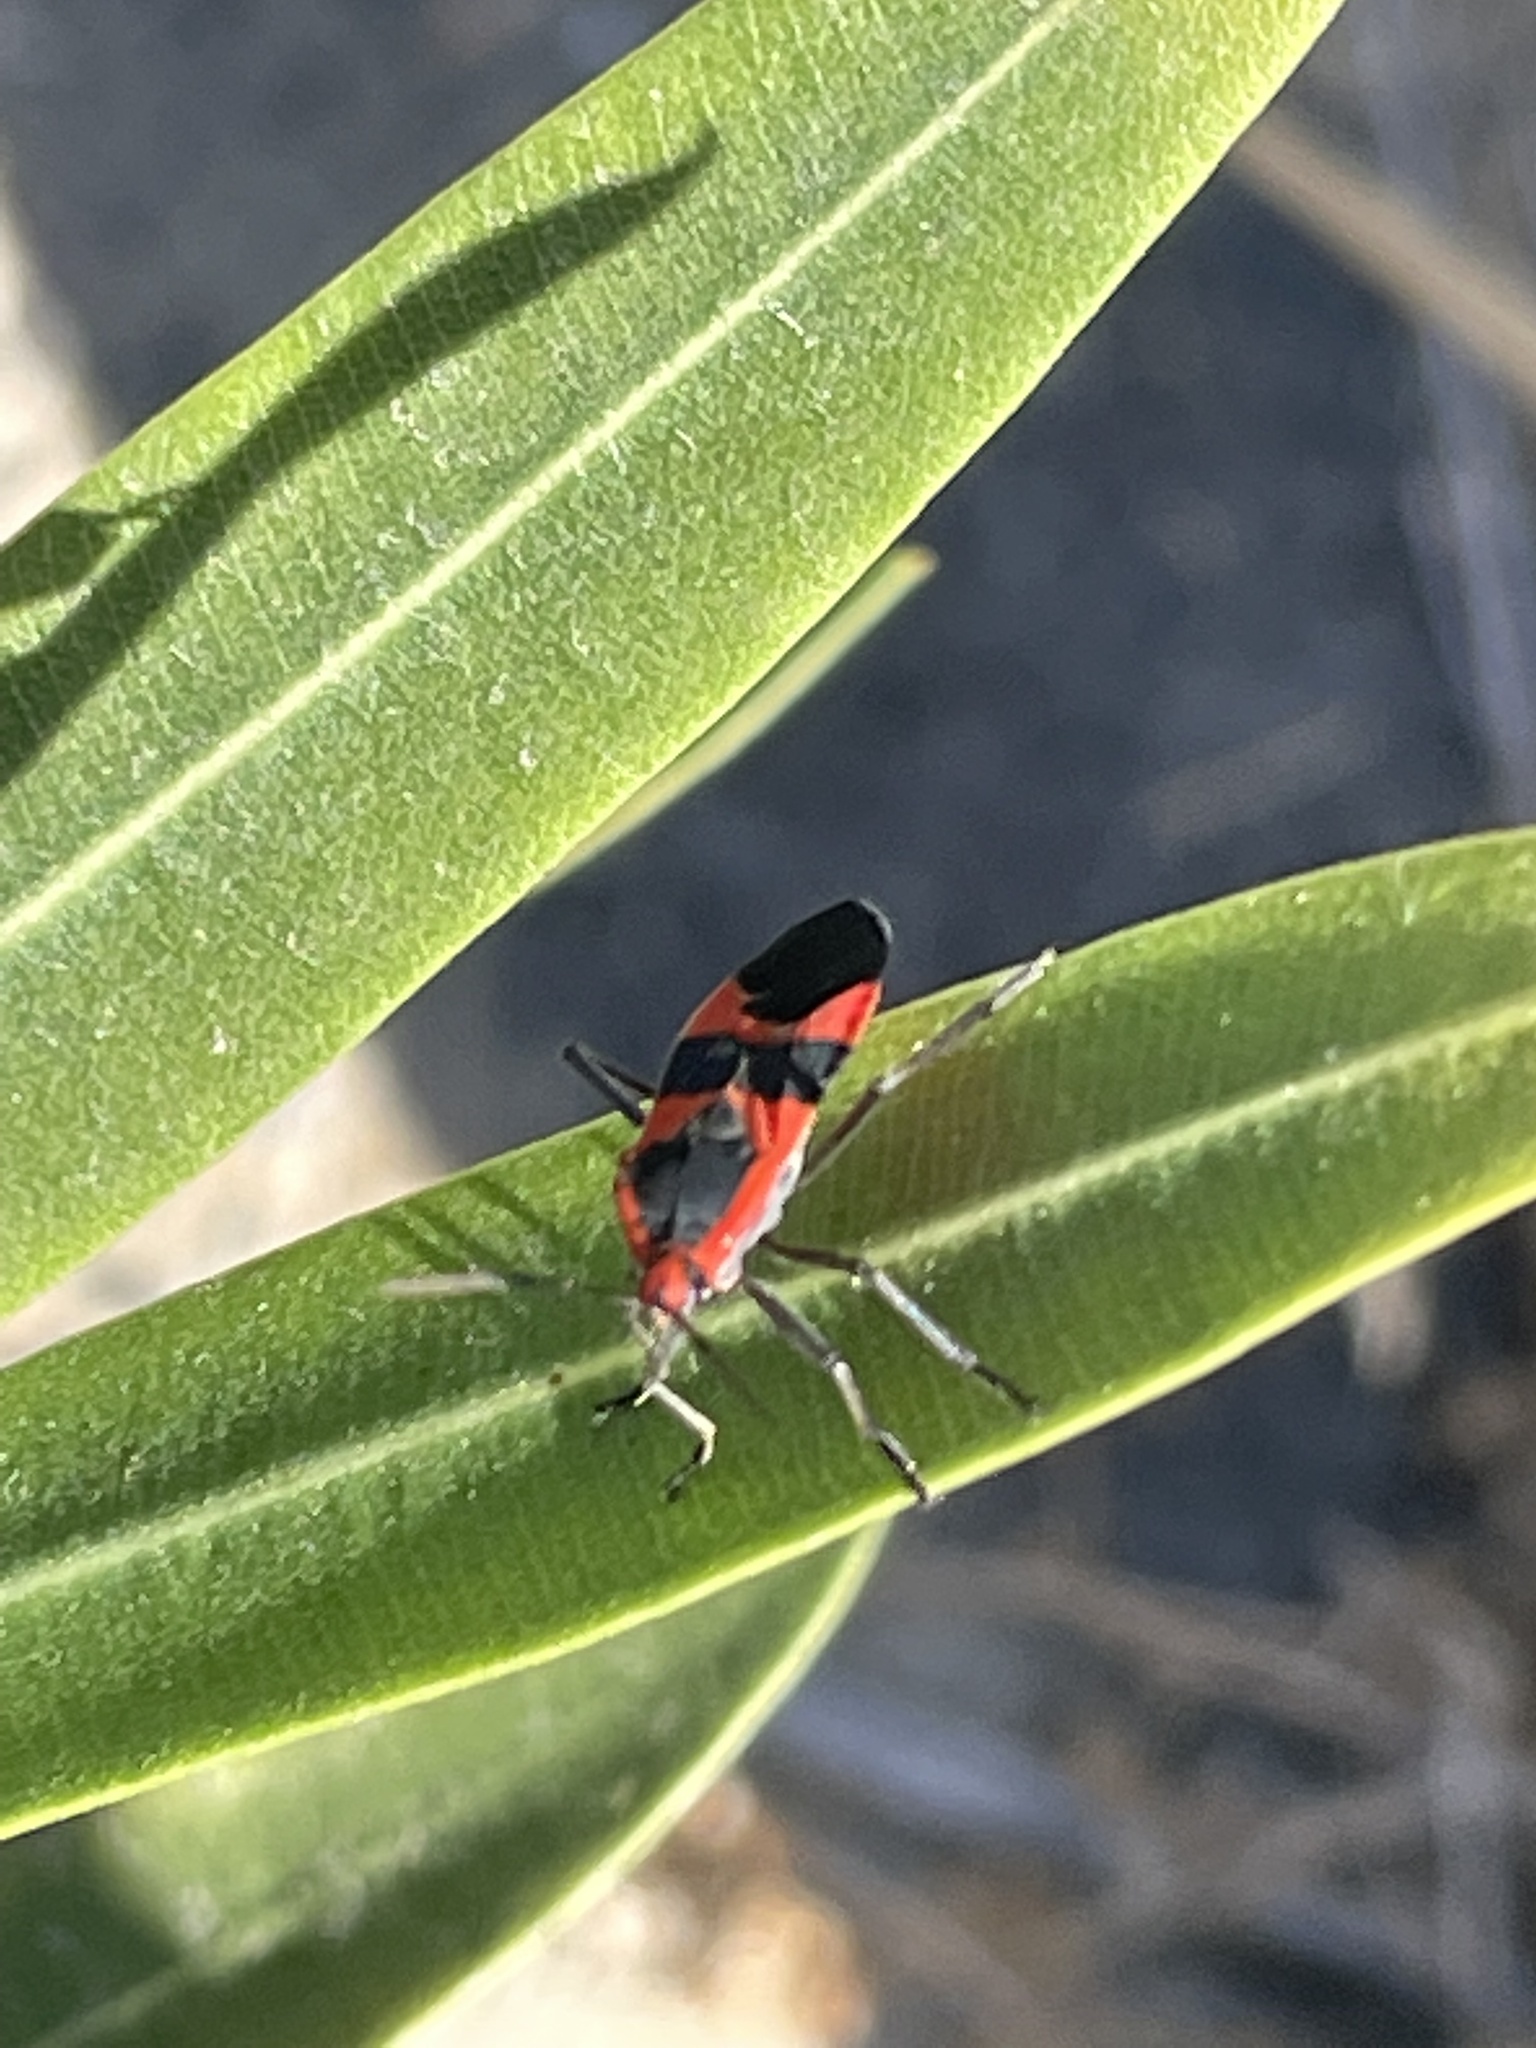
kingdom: Animalia
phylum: Arthropoda
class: Insecta
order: Hemiptera
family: Lygaeidae
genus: Oncopeltus
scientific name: Oncopeltus fasciatus
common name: Large milkweed bug
